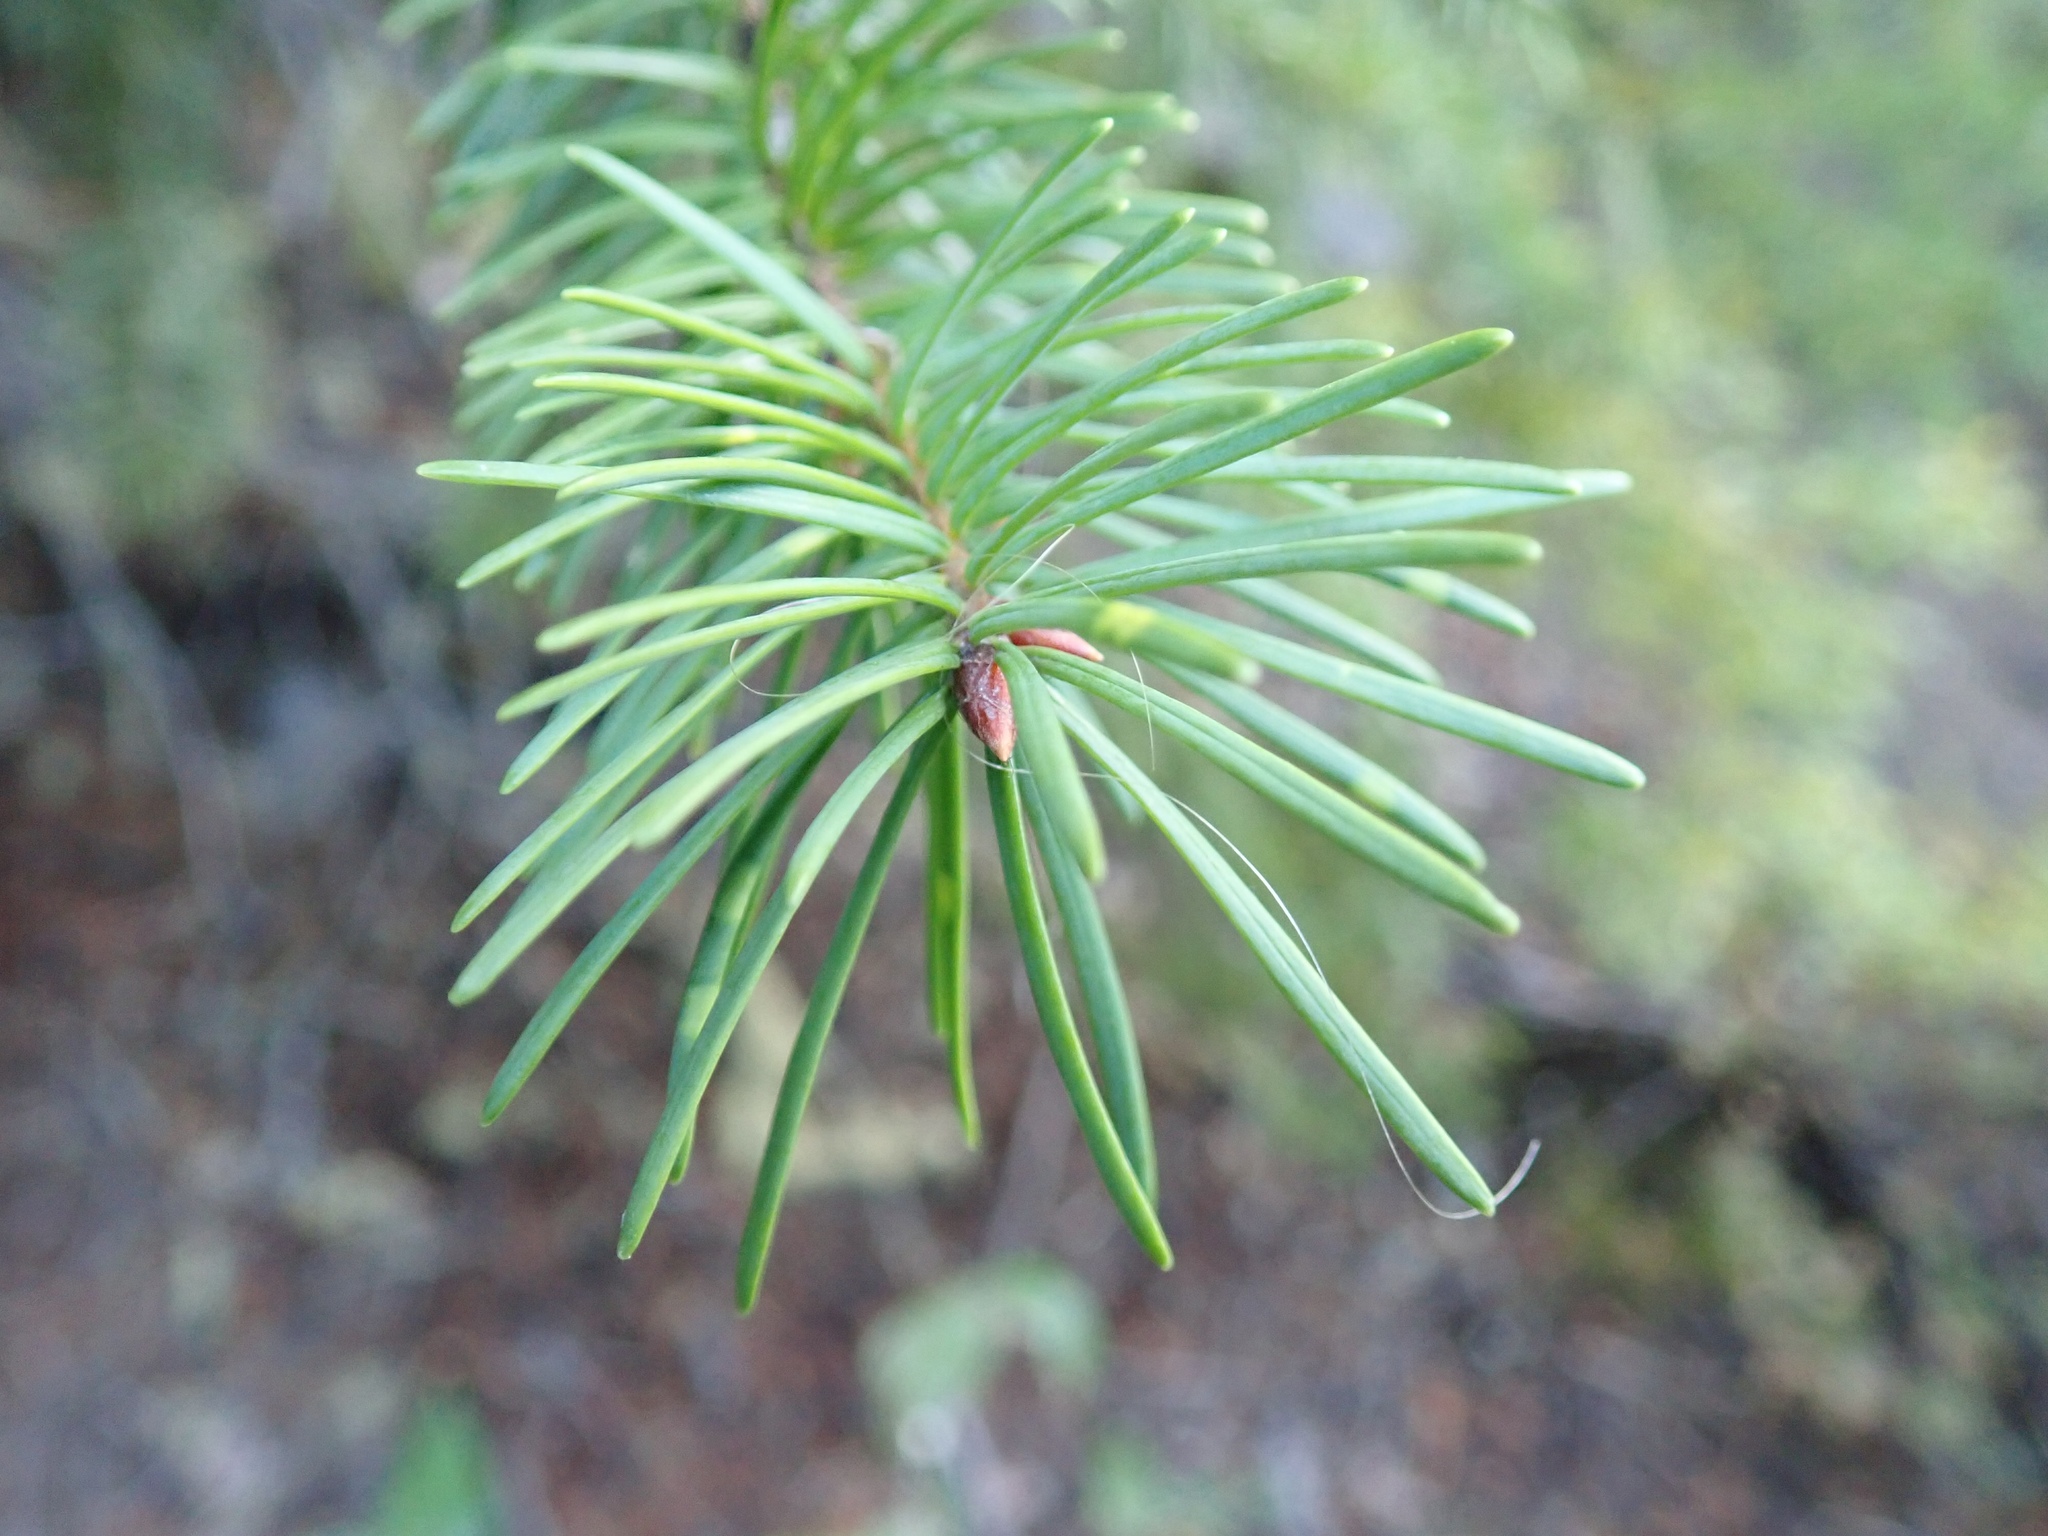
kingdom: Plantae
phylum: Tracheophyta
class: Pinopsida
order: Pinales
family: Pinaceae
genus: Pseudotsuga
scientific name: Pseudotsuga menziesii
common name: Douglas fir
